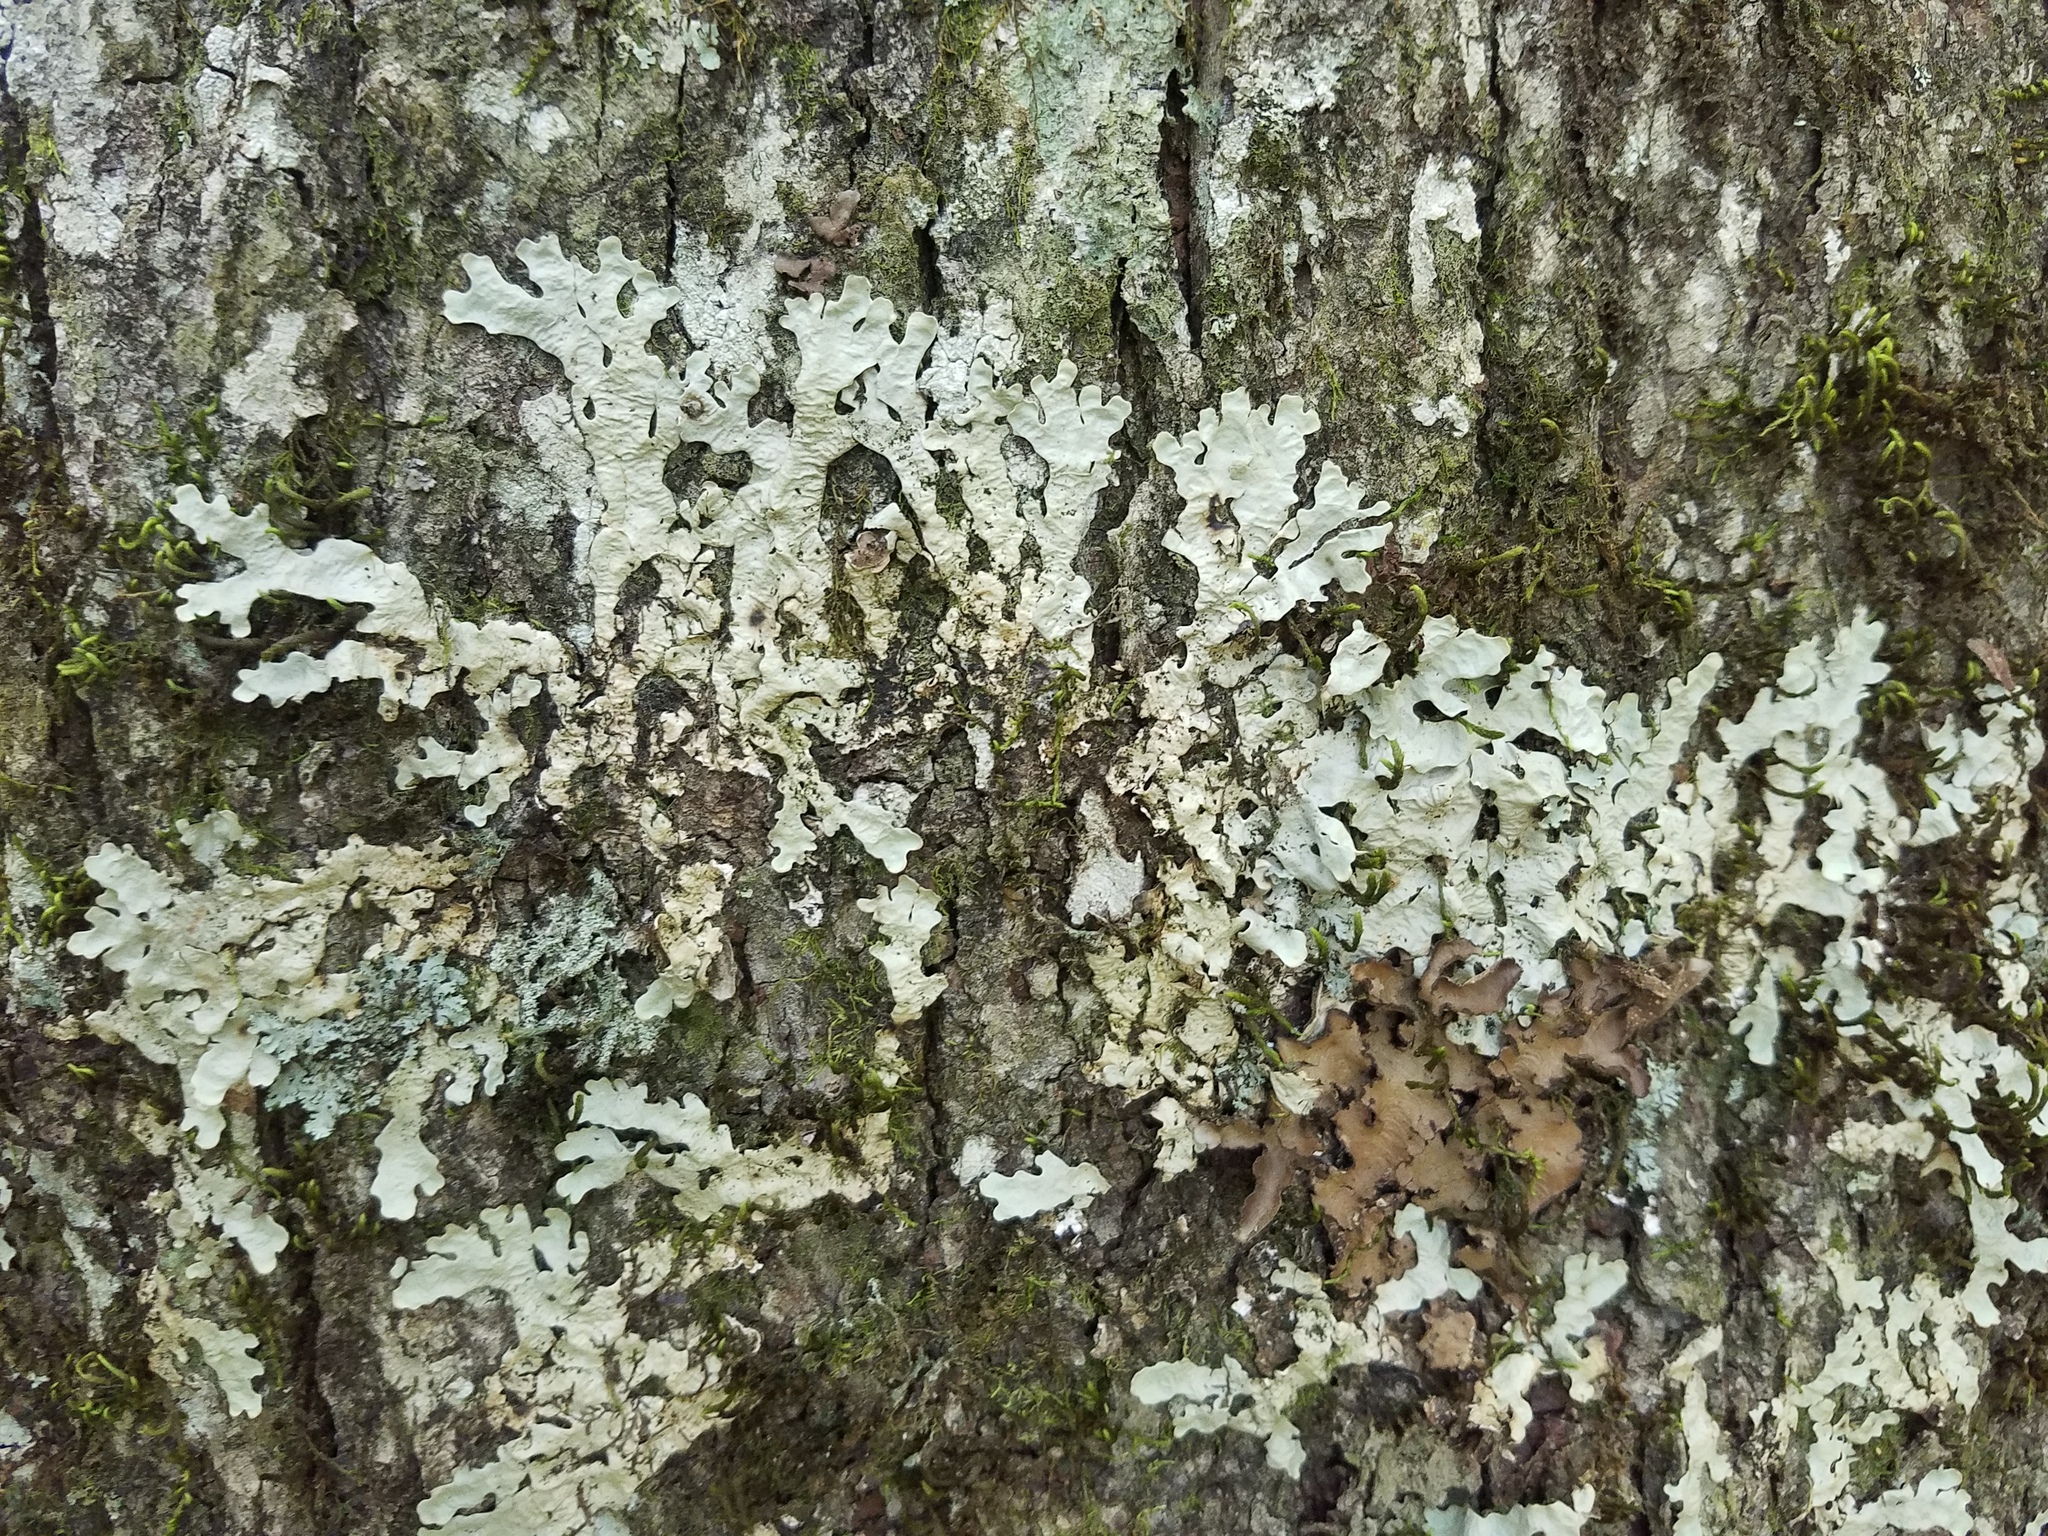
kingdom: Fungi
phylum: Ascomycota
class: Lecanoromycetes
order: Peltigerales
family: Lobariaceae
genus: Ricasolia
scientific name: Ricasolia quercizans
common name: Smooth lungwort
